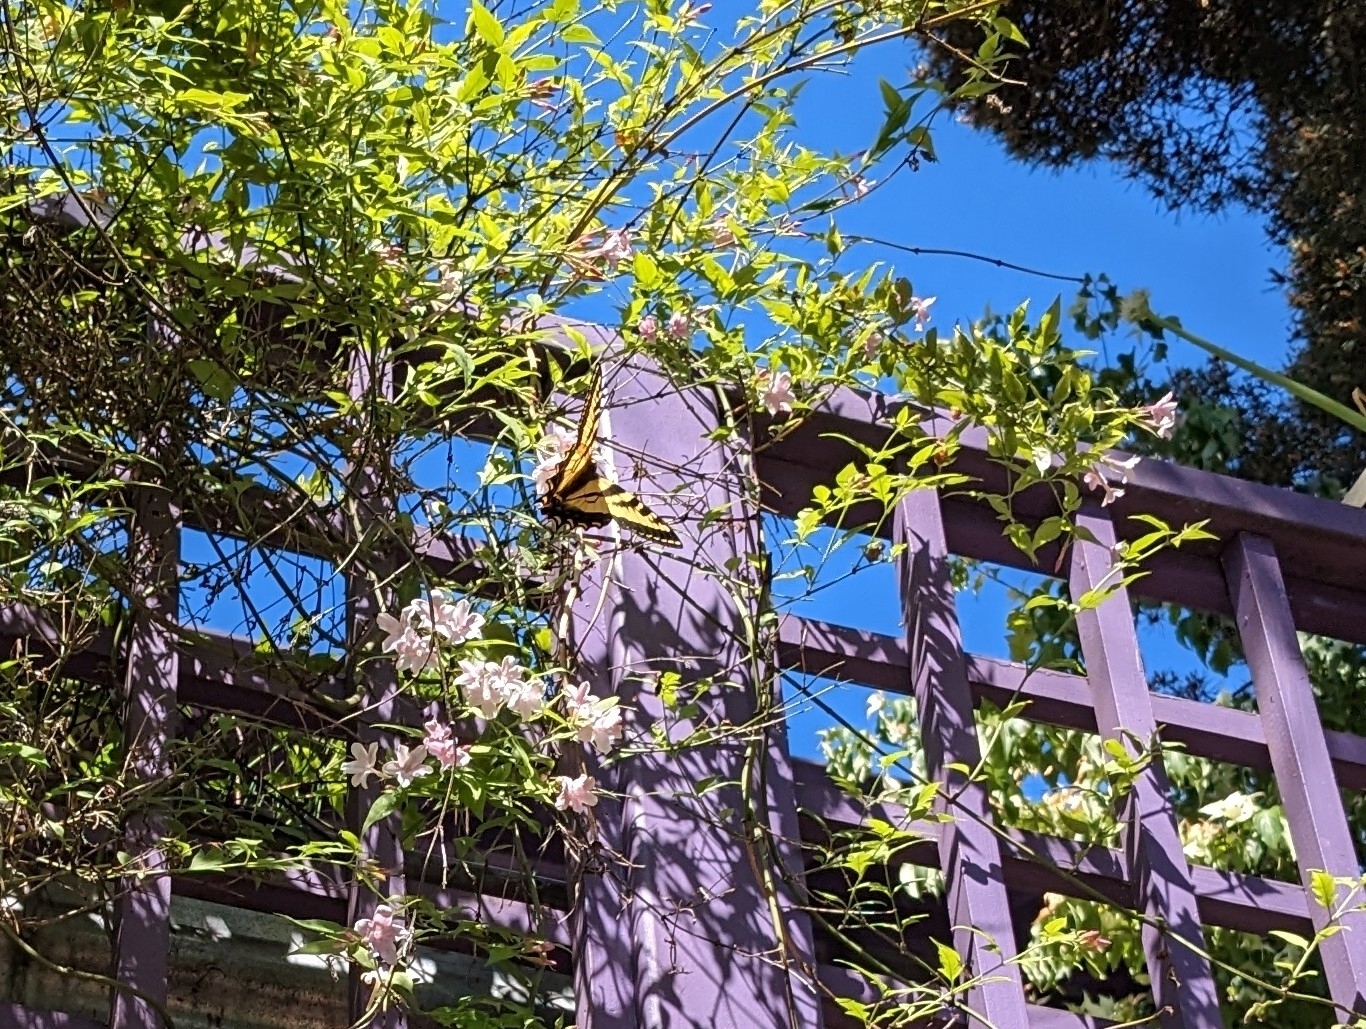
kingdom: Animalia
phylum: Arthropoda
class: Insecta
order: Lepidoptera
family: Papilionidae
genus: Papilio
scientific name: Papilio rutulus
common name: Western tiger swallowtail
